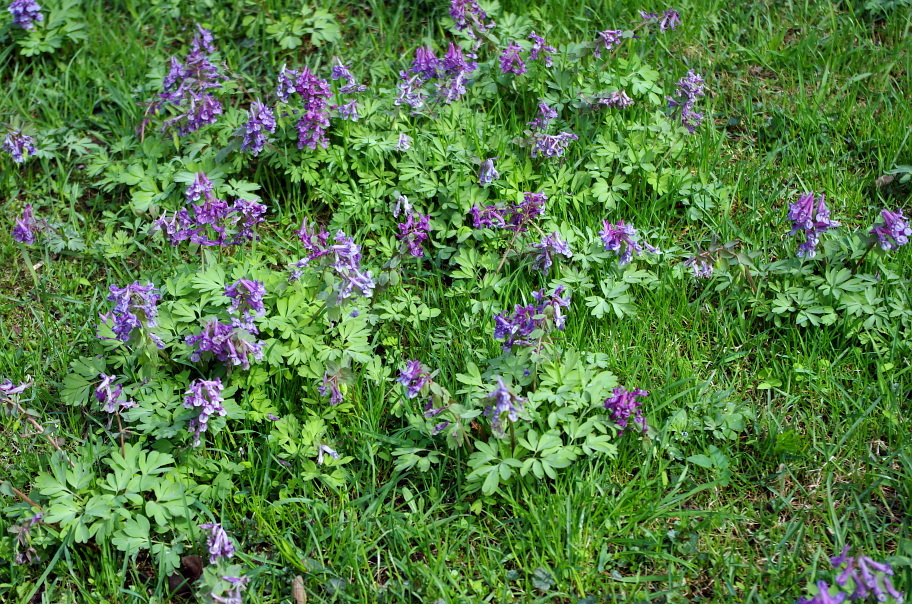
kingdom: Plantae
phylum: Tracheophyta
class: Magnoliopsida
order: Ranunculales
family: Papaveraceae
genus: Corydalis
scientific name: Corydalis solida
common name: Bird-in-a-bush
